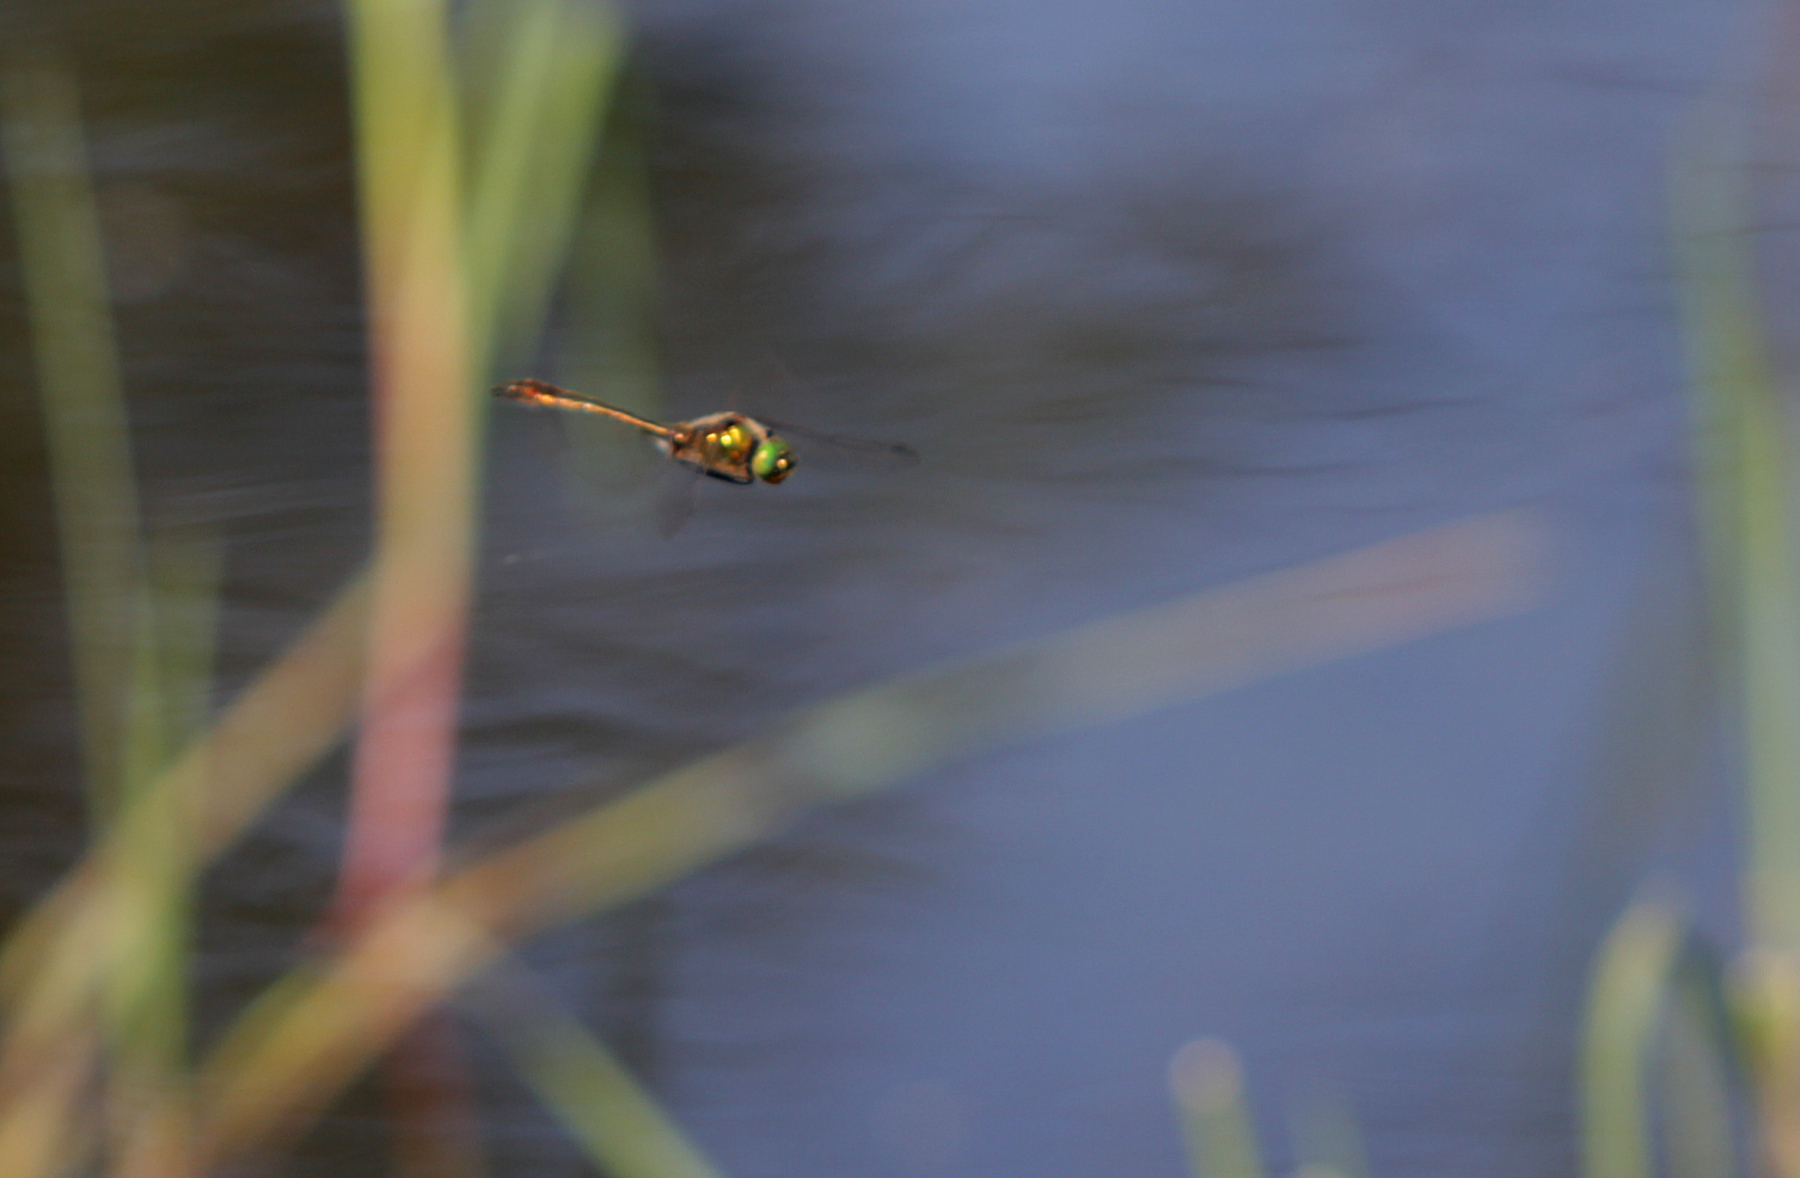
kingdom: Animalia
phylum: Arthropoda
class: Insecta
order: Odonata
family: Corduliidae
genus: Cordulia
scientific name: Cordulia aenea
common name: Downy emerald
